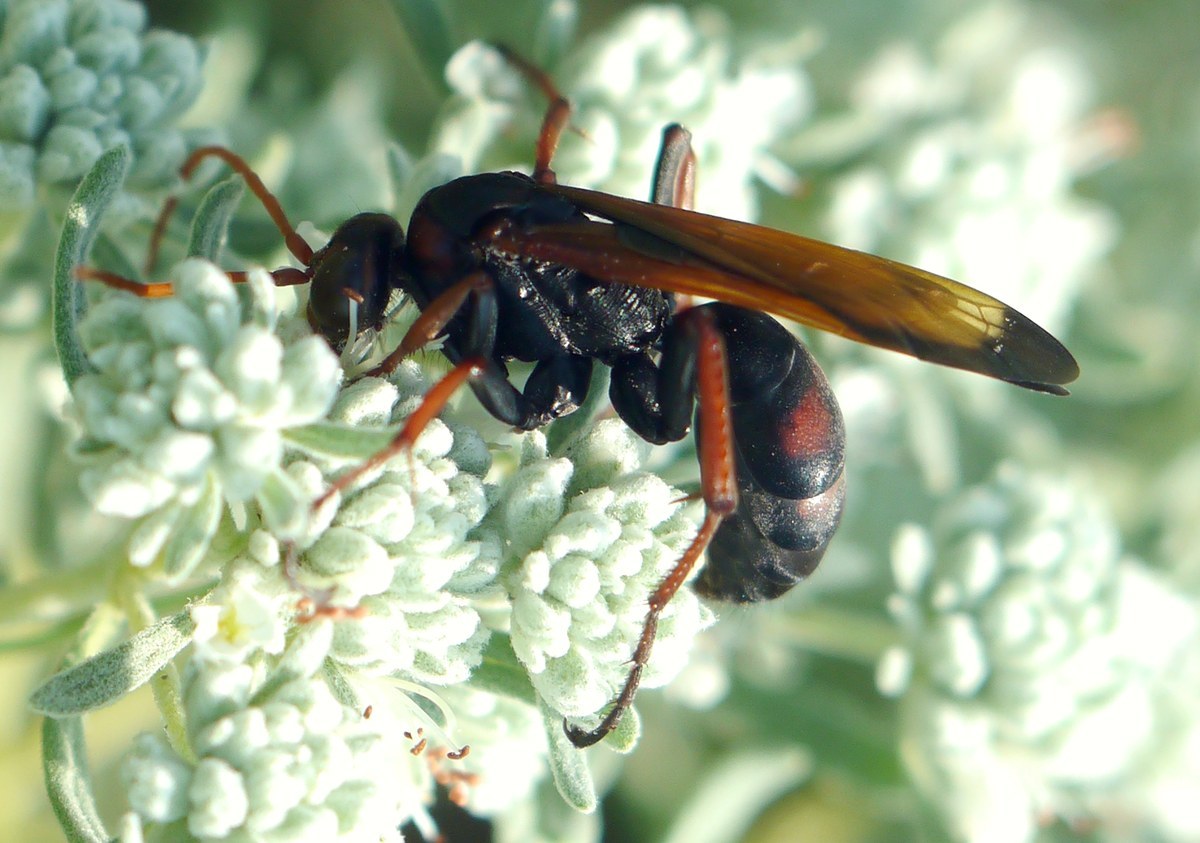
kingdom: Animalia
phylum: Arthropoda
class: Insecta
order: Hymenoptera
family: Pompilidae
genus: Cryptocheilus
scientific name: Cryptocheilus rubellus
